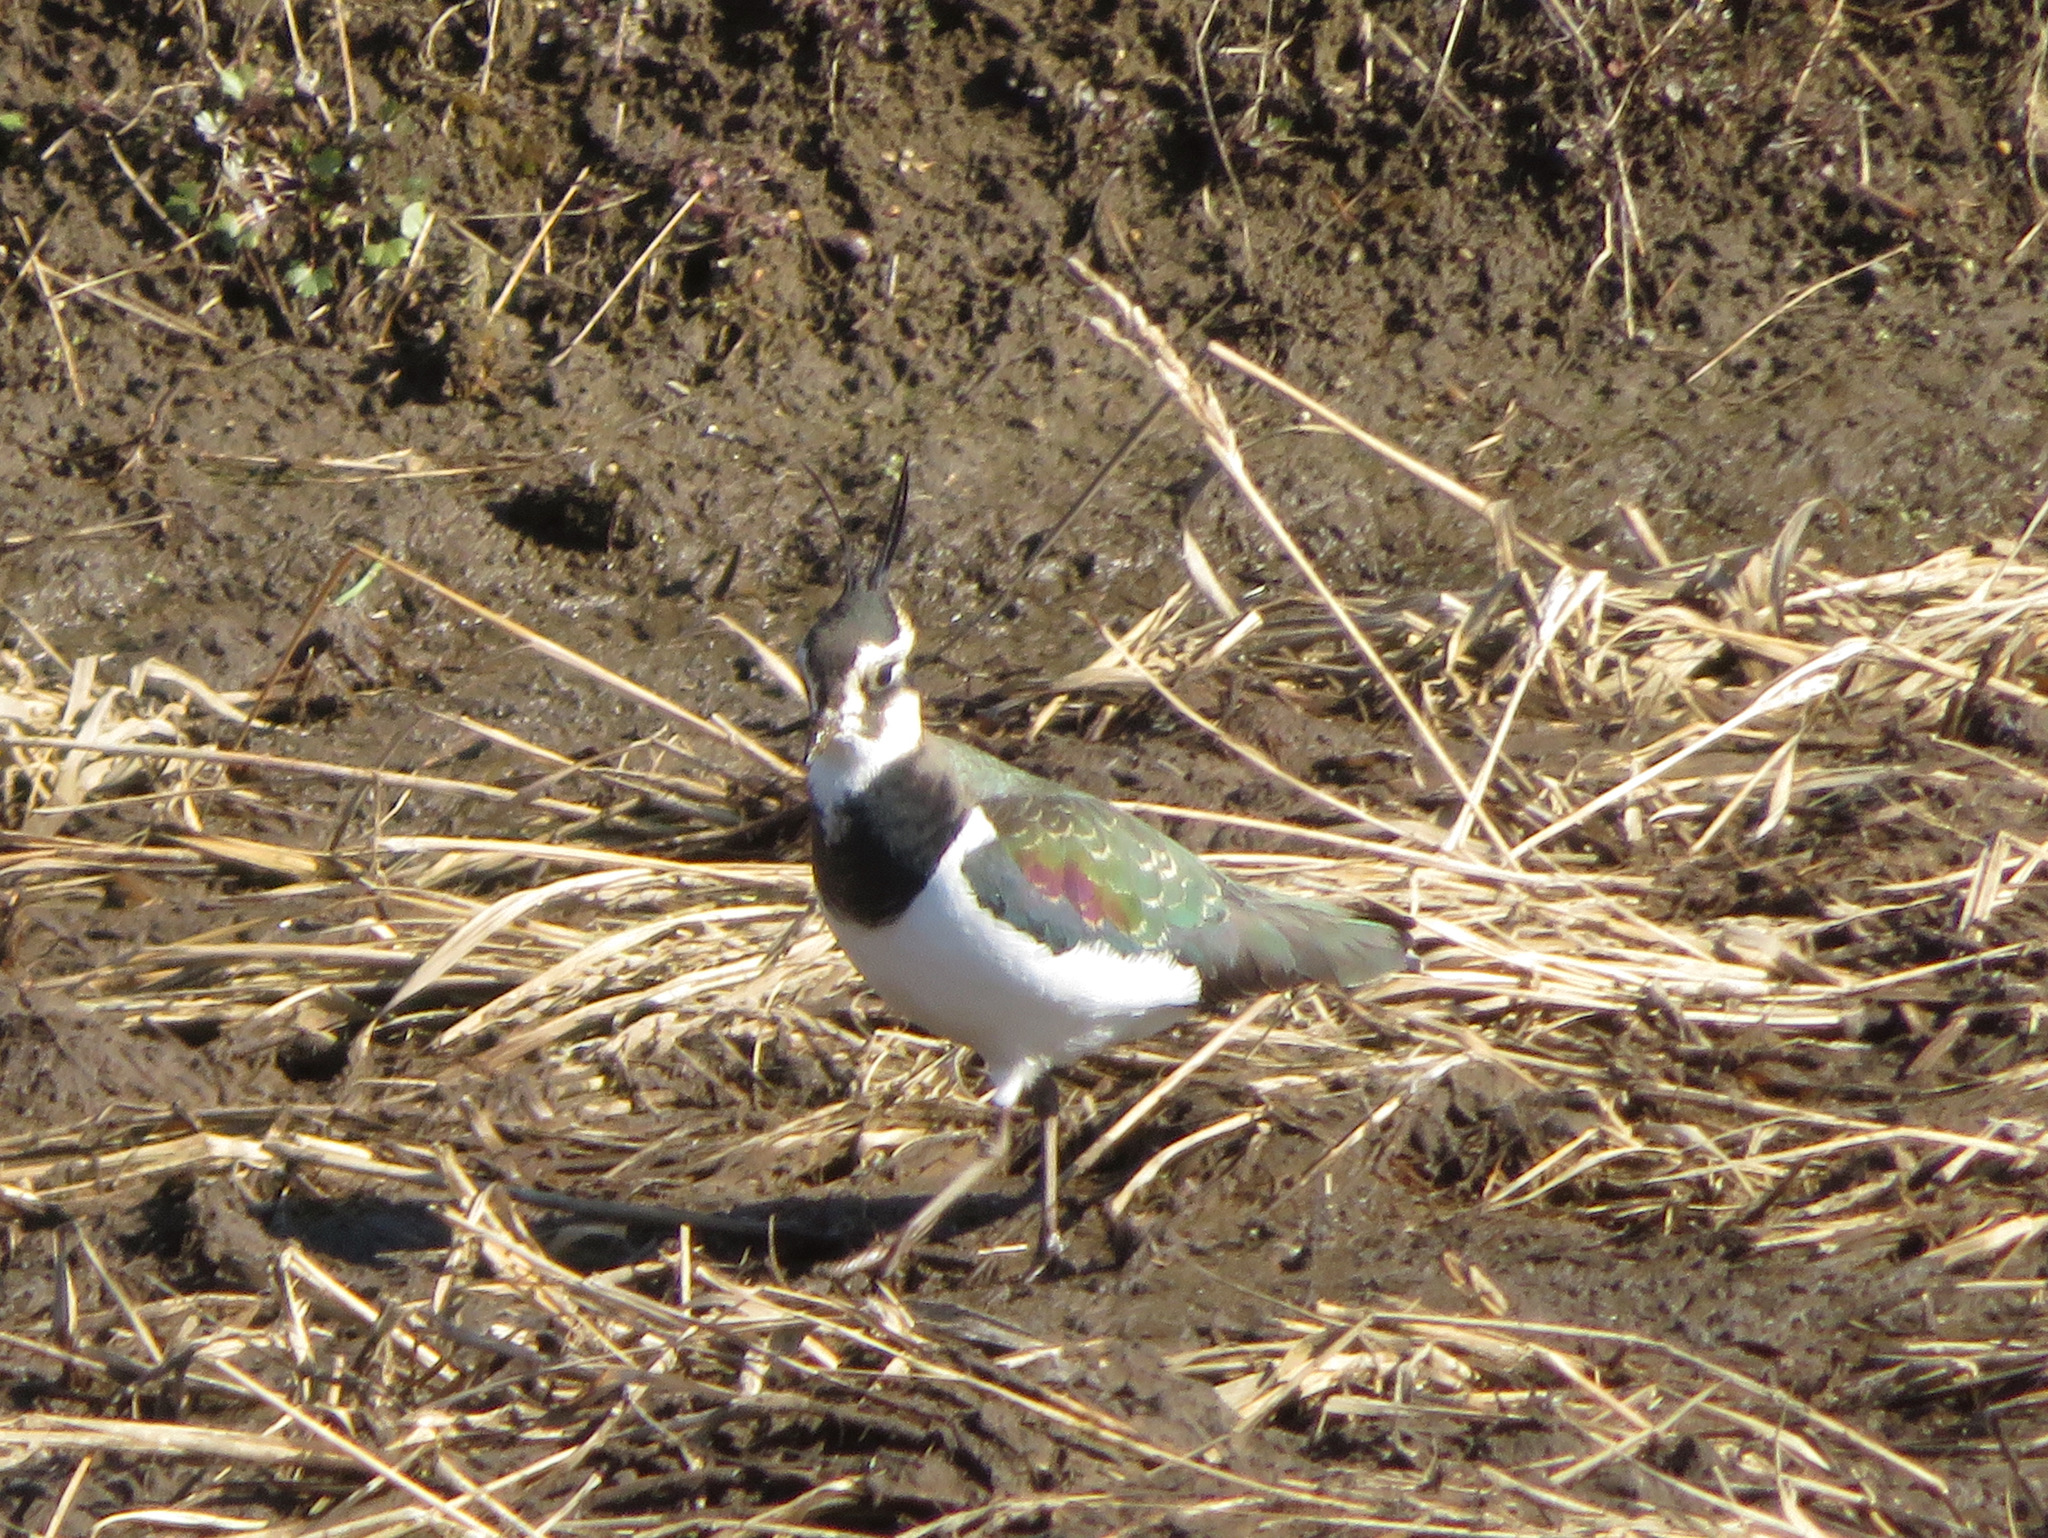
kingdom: Animalia
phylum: Chordata
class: Aves
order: Charadriiformes
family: Charadriidae
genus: Vanellus
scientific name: Vanellus vanellus
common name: Northern lapwing
